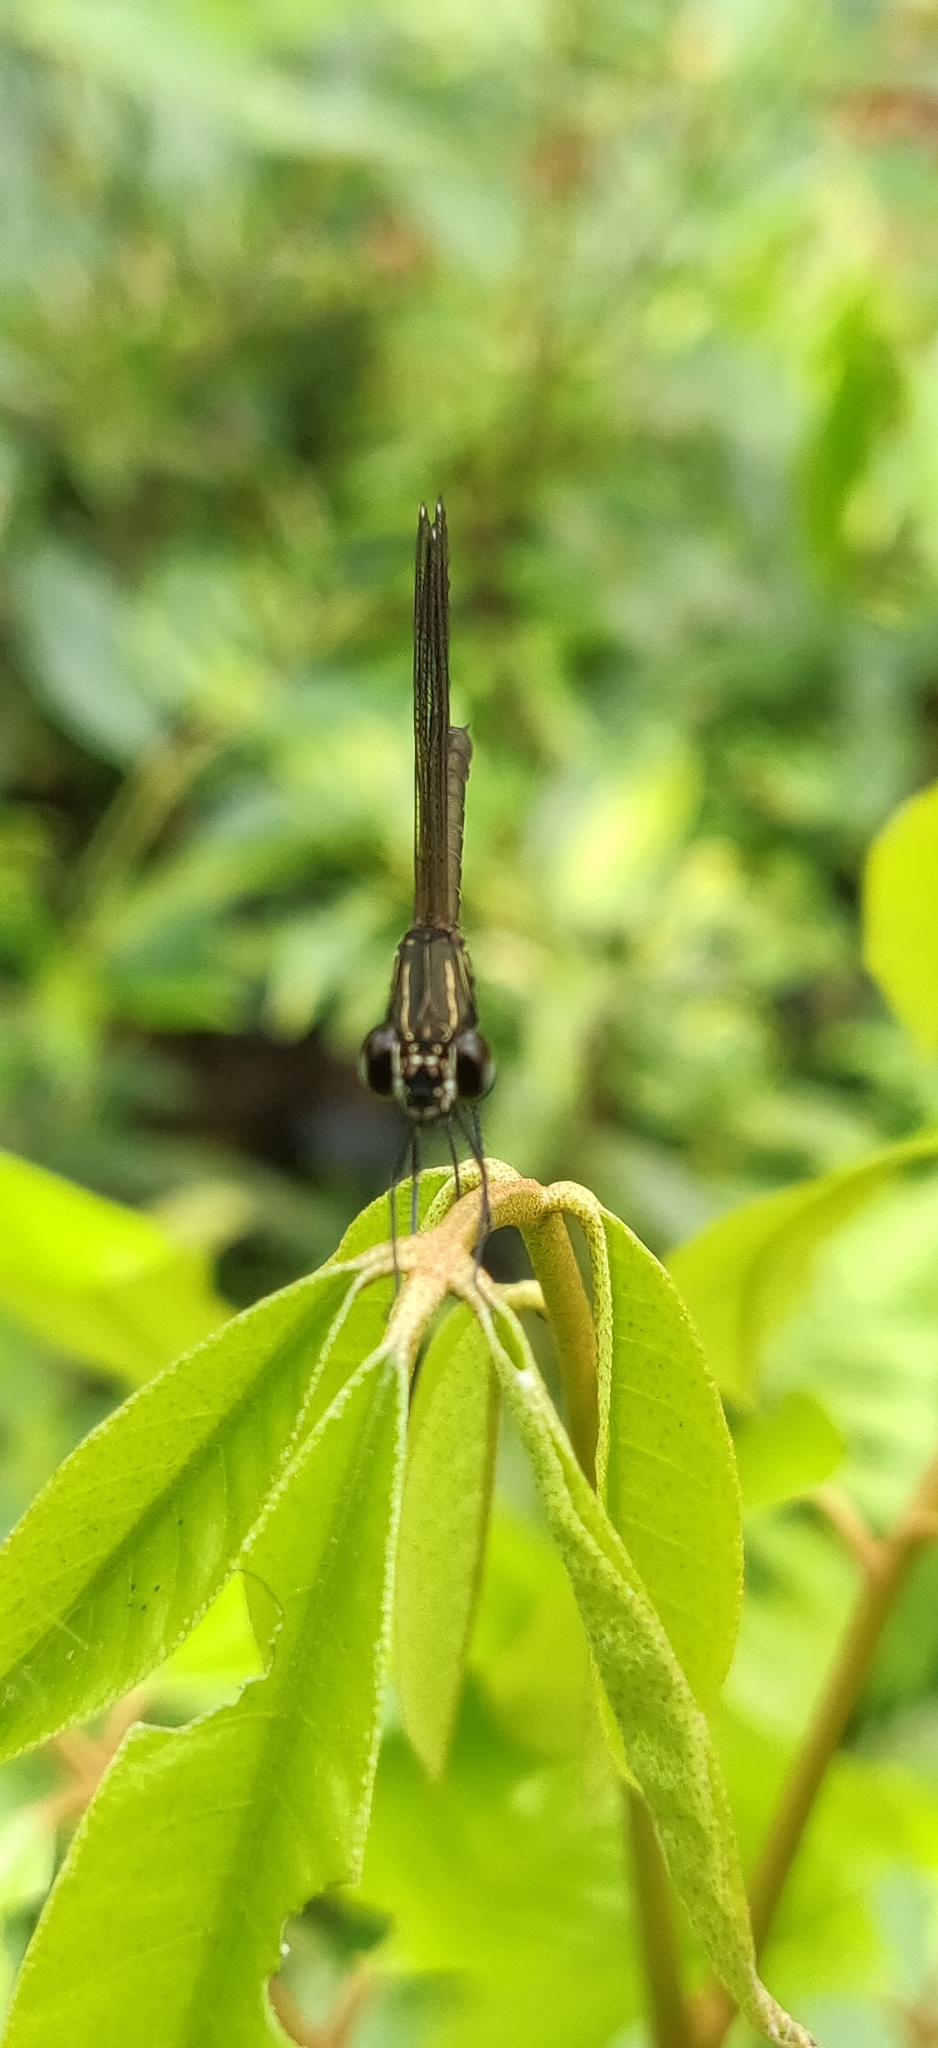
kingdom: Animalia
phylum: Arthropoda
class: Insecta
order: Odonata
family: Chlorocyphidae
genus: Heliocypha
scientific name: Heliocypha bisignata
